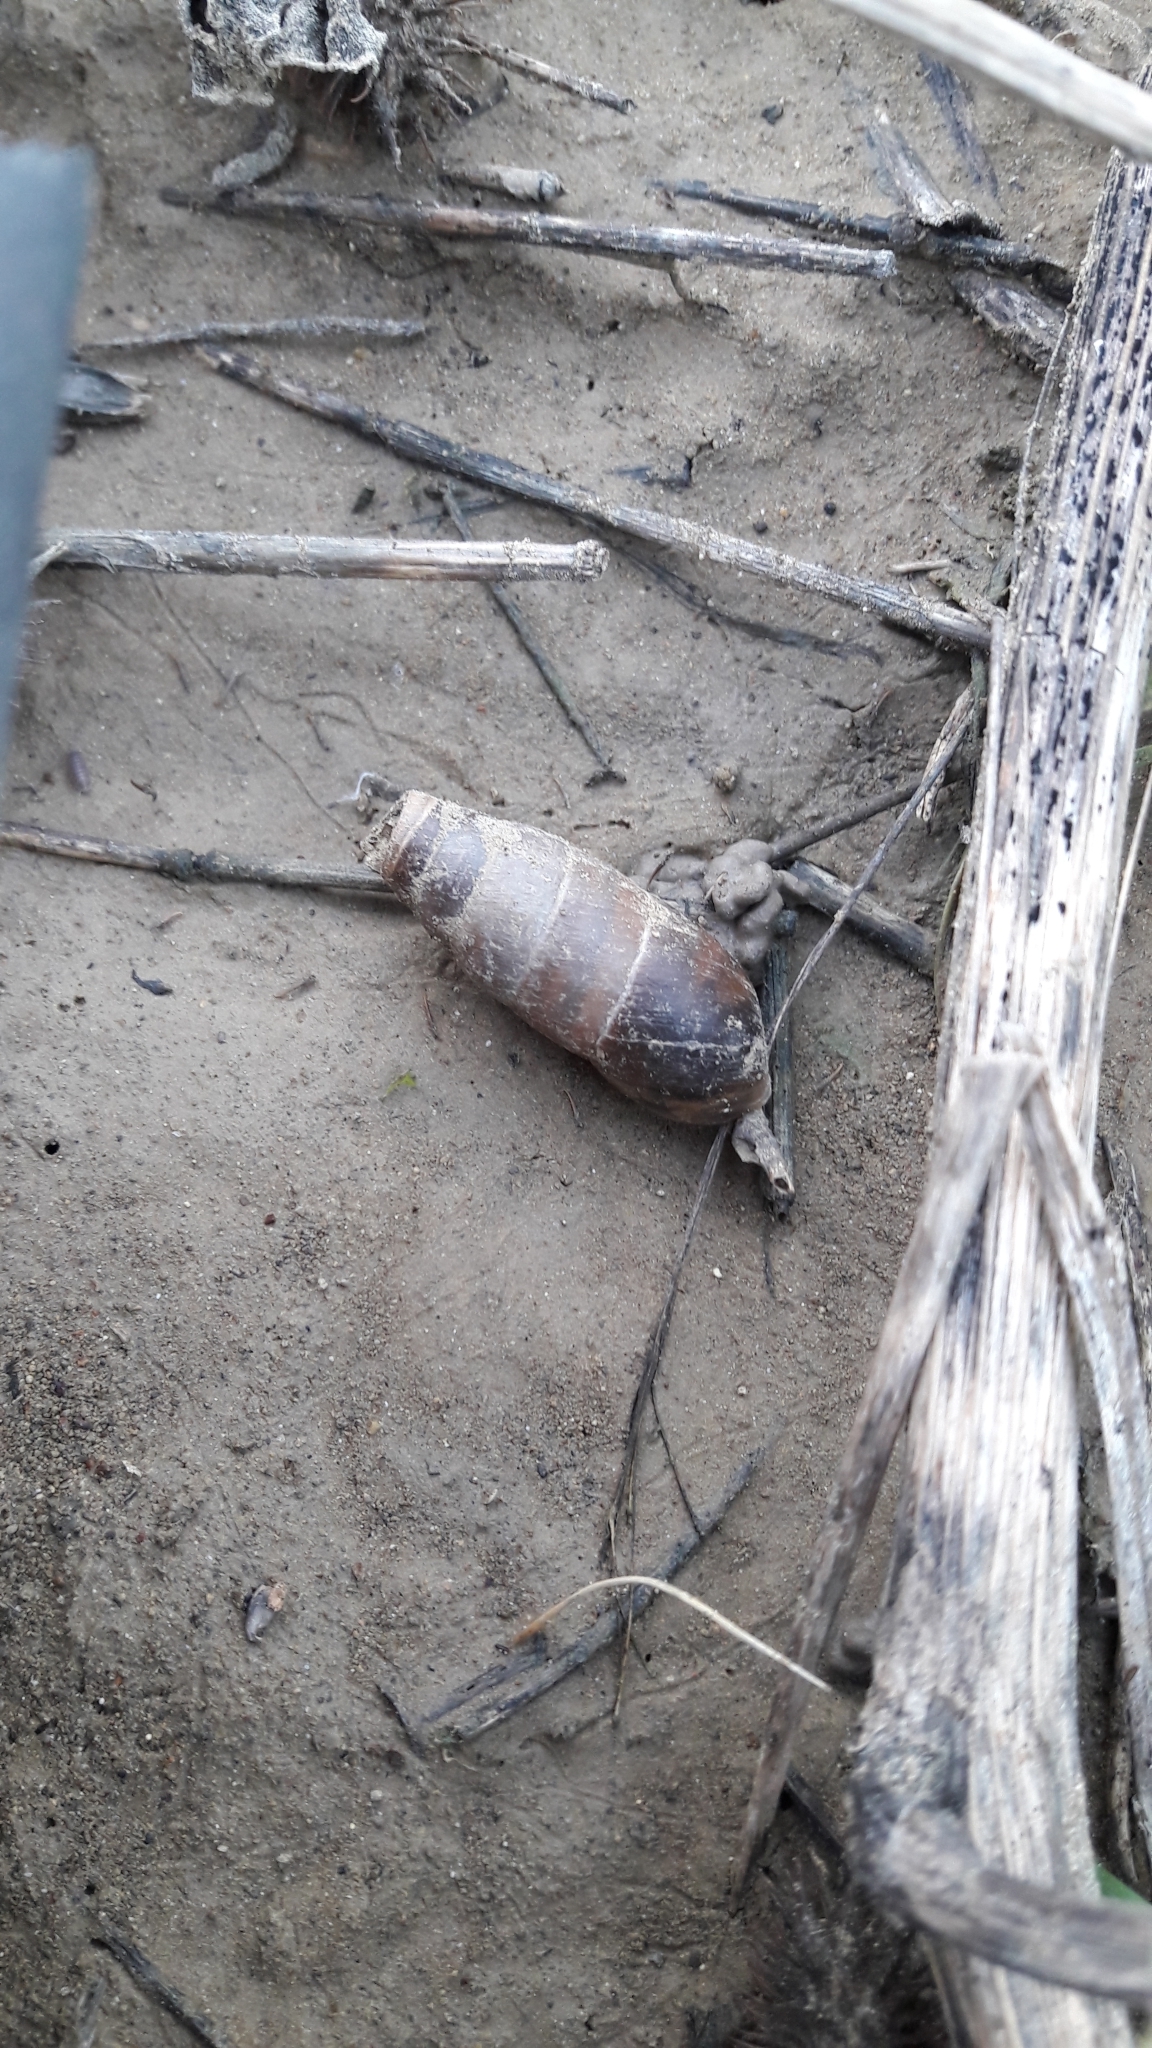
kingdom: Animalia
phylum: Mollusca
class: Gastropoda
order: Stylommatophora
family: Achatinidae
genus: Rumina
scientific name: Rumina decollata
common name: Decollate snail
